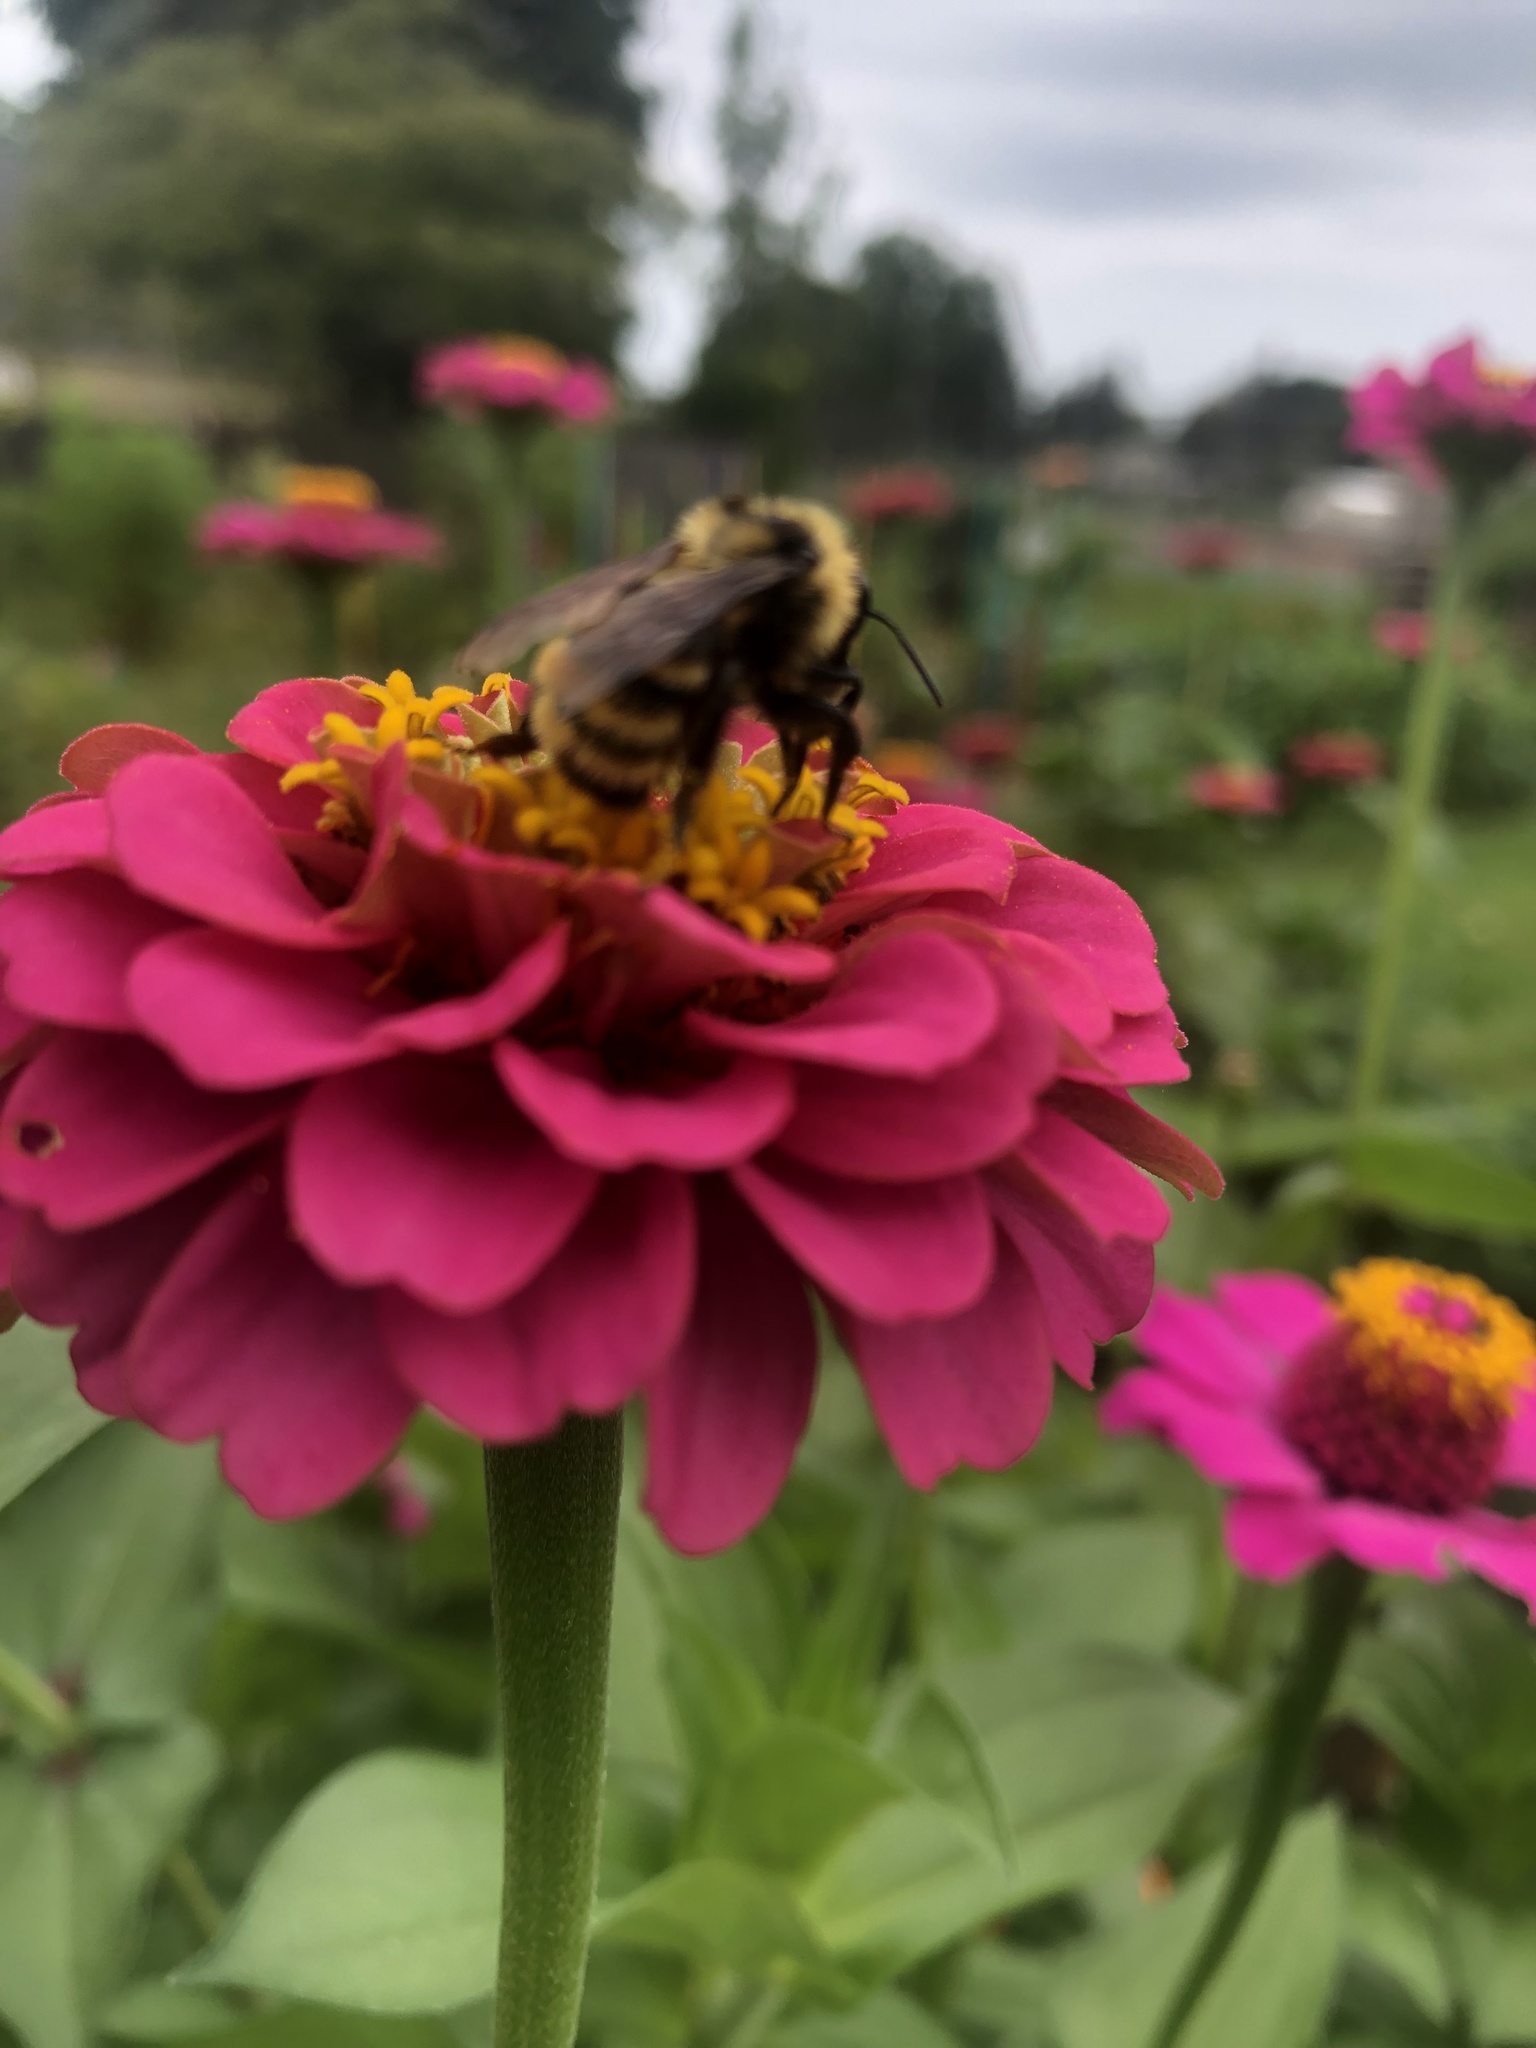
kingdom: Animalia
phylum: Arthropoda
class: Insecta
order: Hymenoptera
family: Apidae
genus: Bombus
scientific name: Bombus borealis
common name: Northern amber bumble bee
